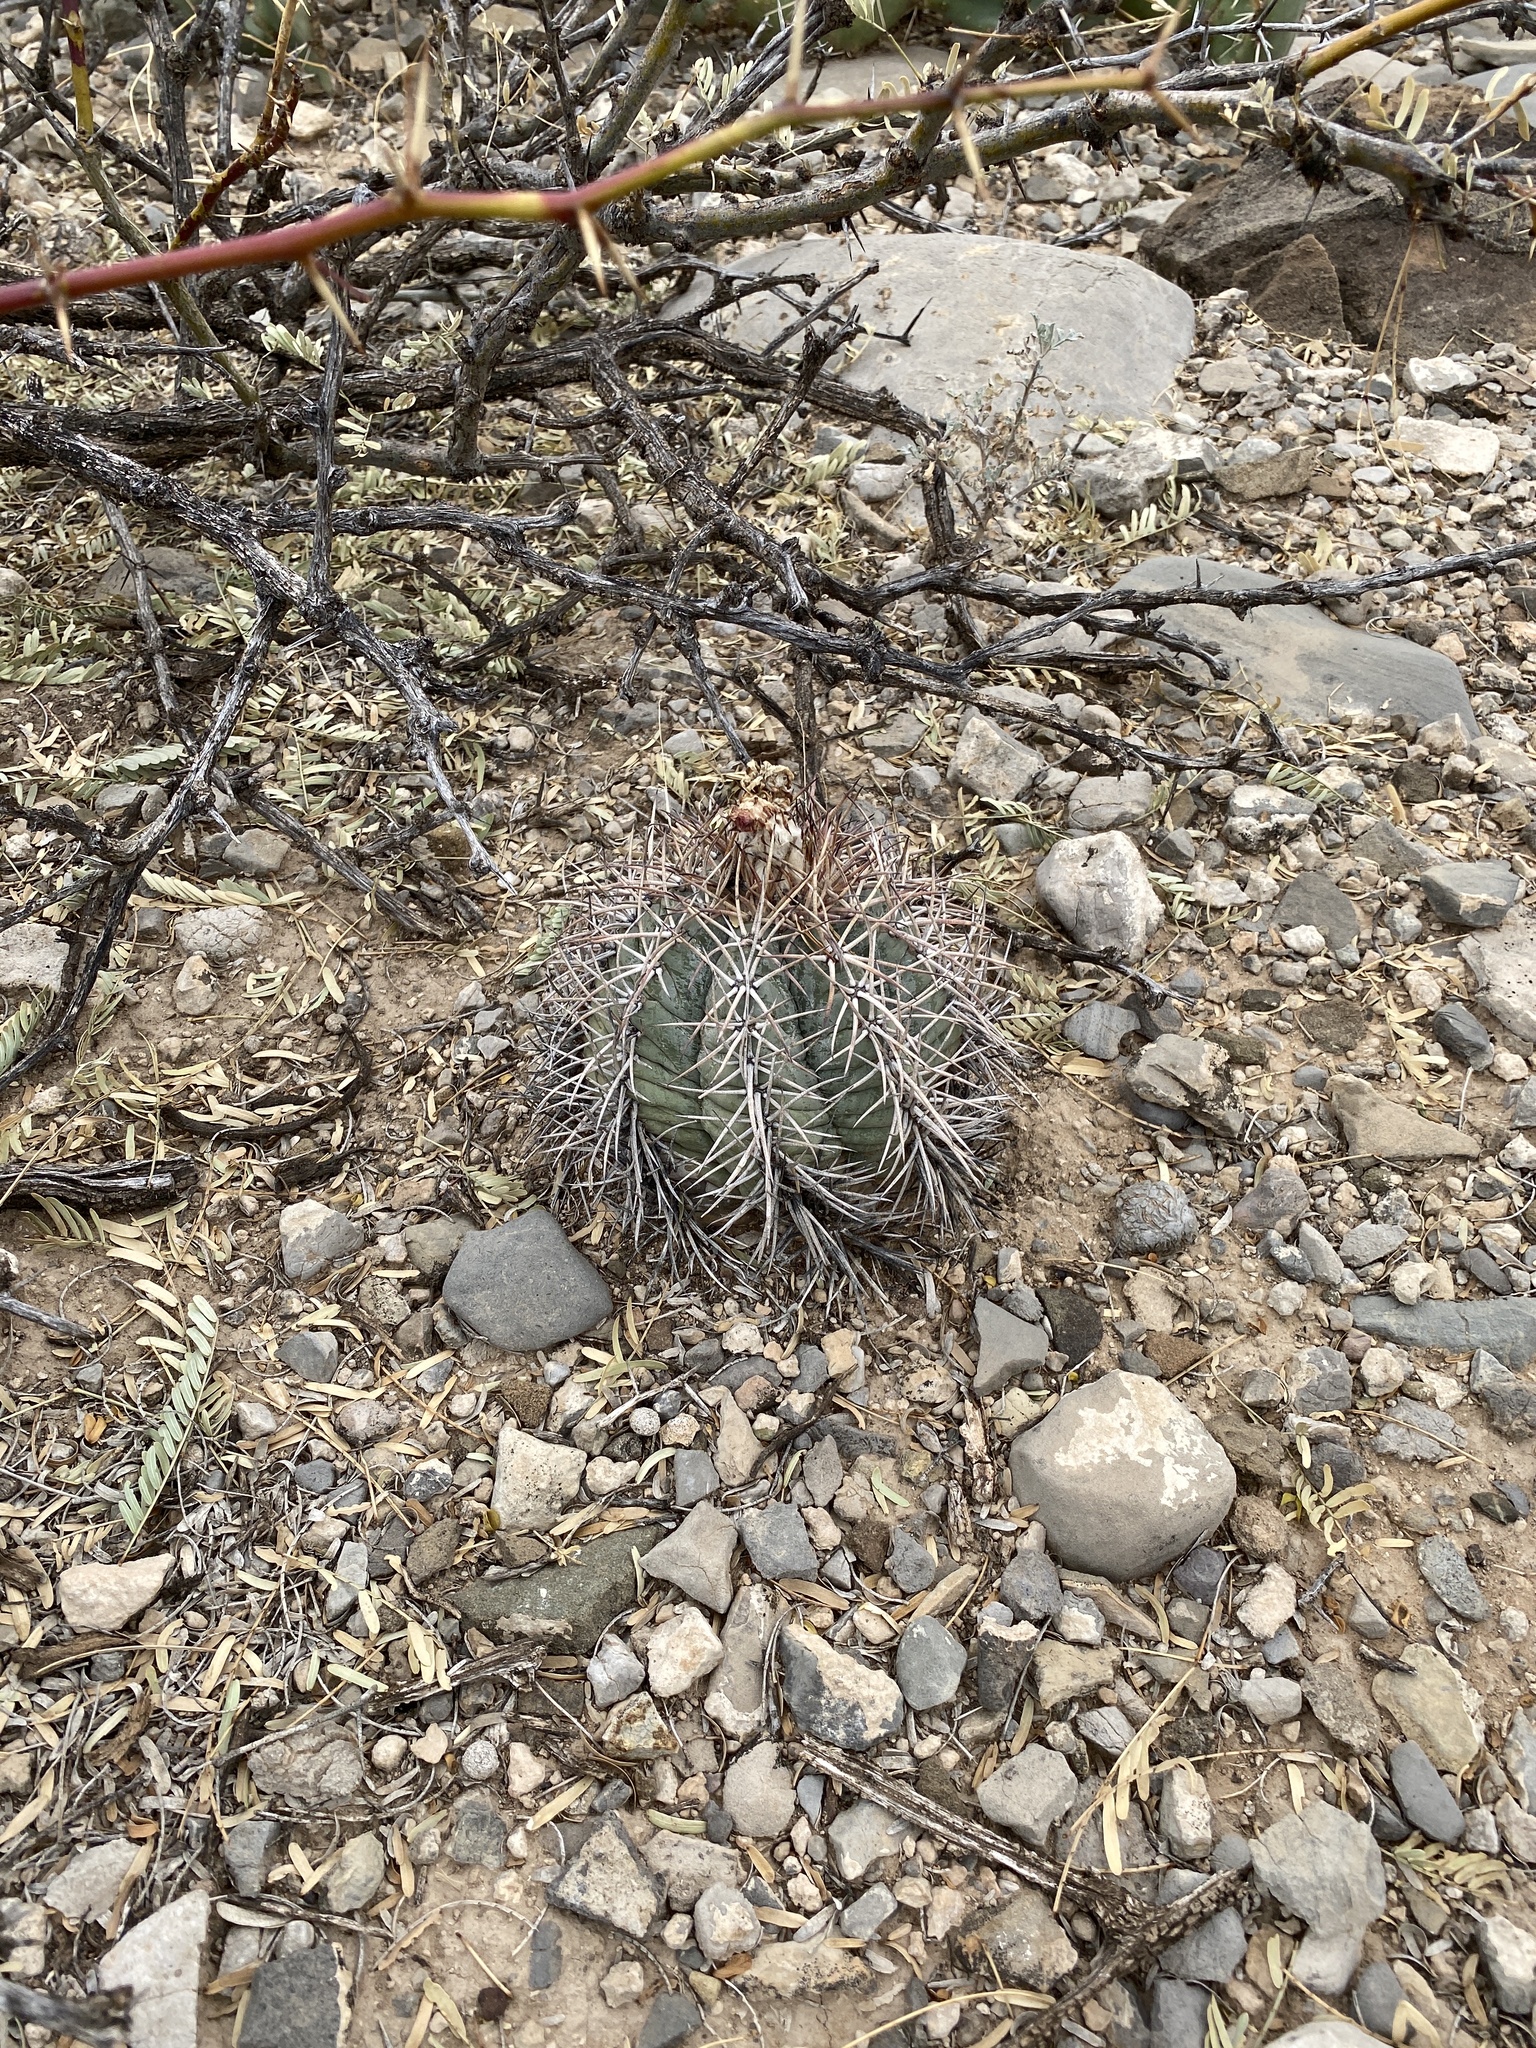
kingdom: Plantae
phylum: Tracheophyta
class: Magnoliopsida
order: Caryophyllales
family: Cactaceae
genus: Echinocactus
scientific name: Echinocactus horizonthalonius
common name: Devilshead
